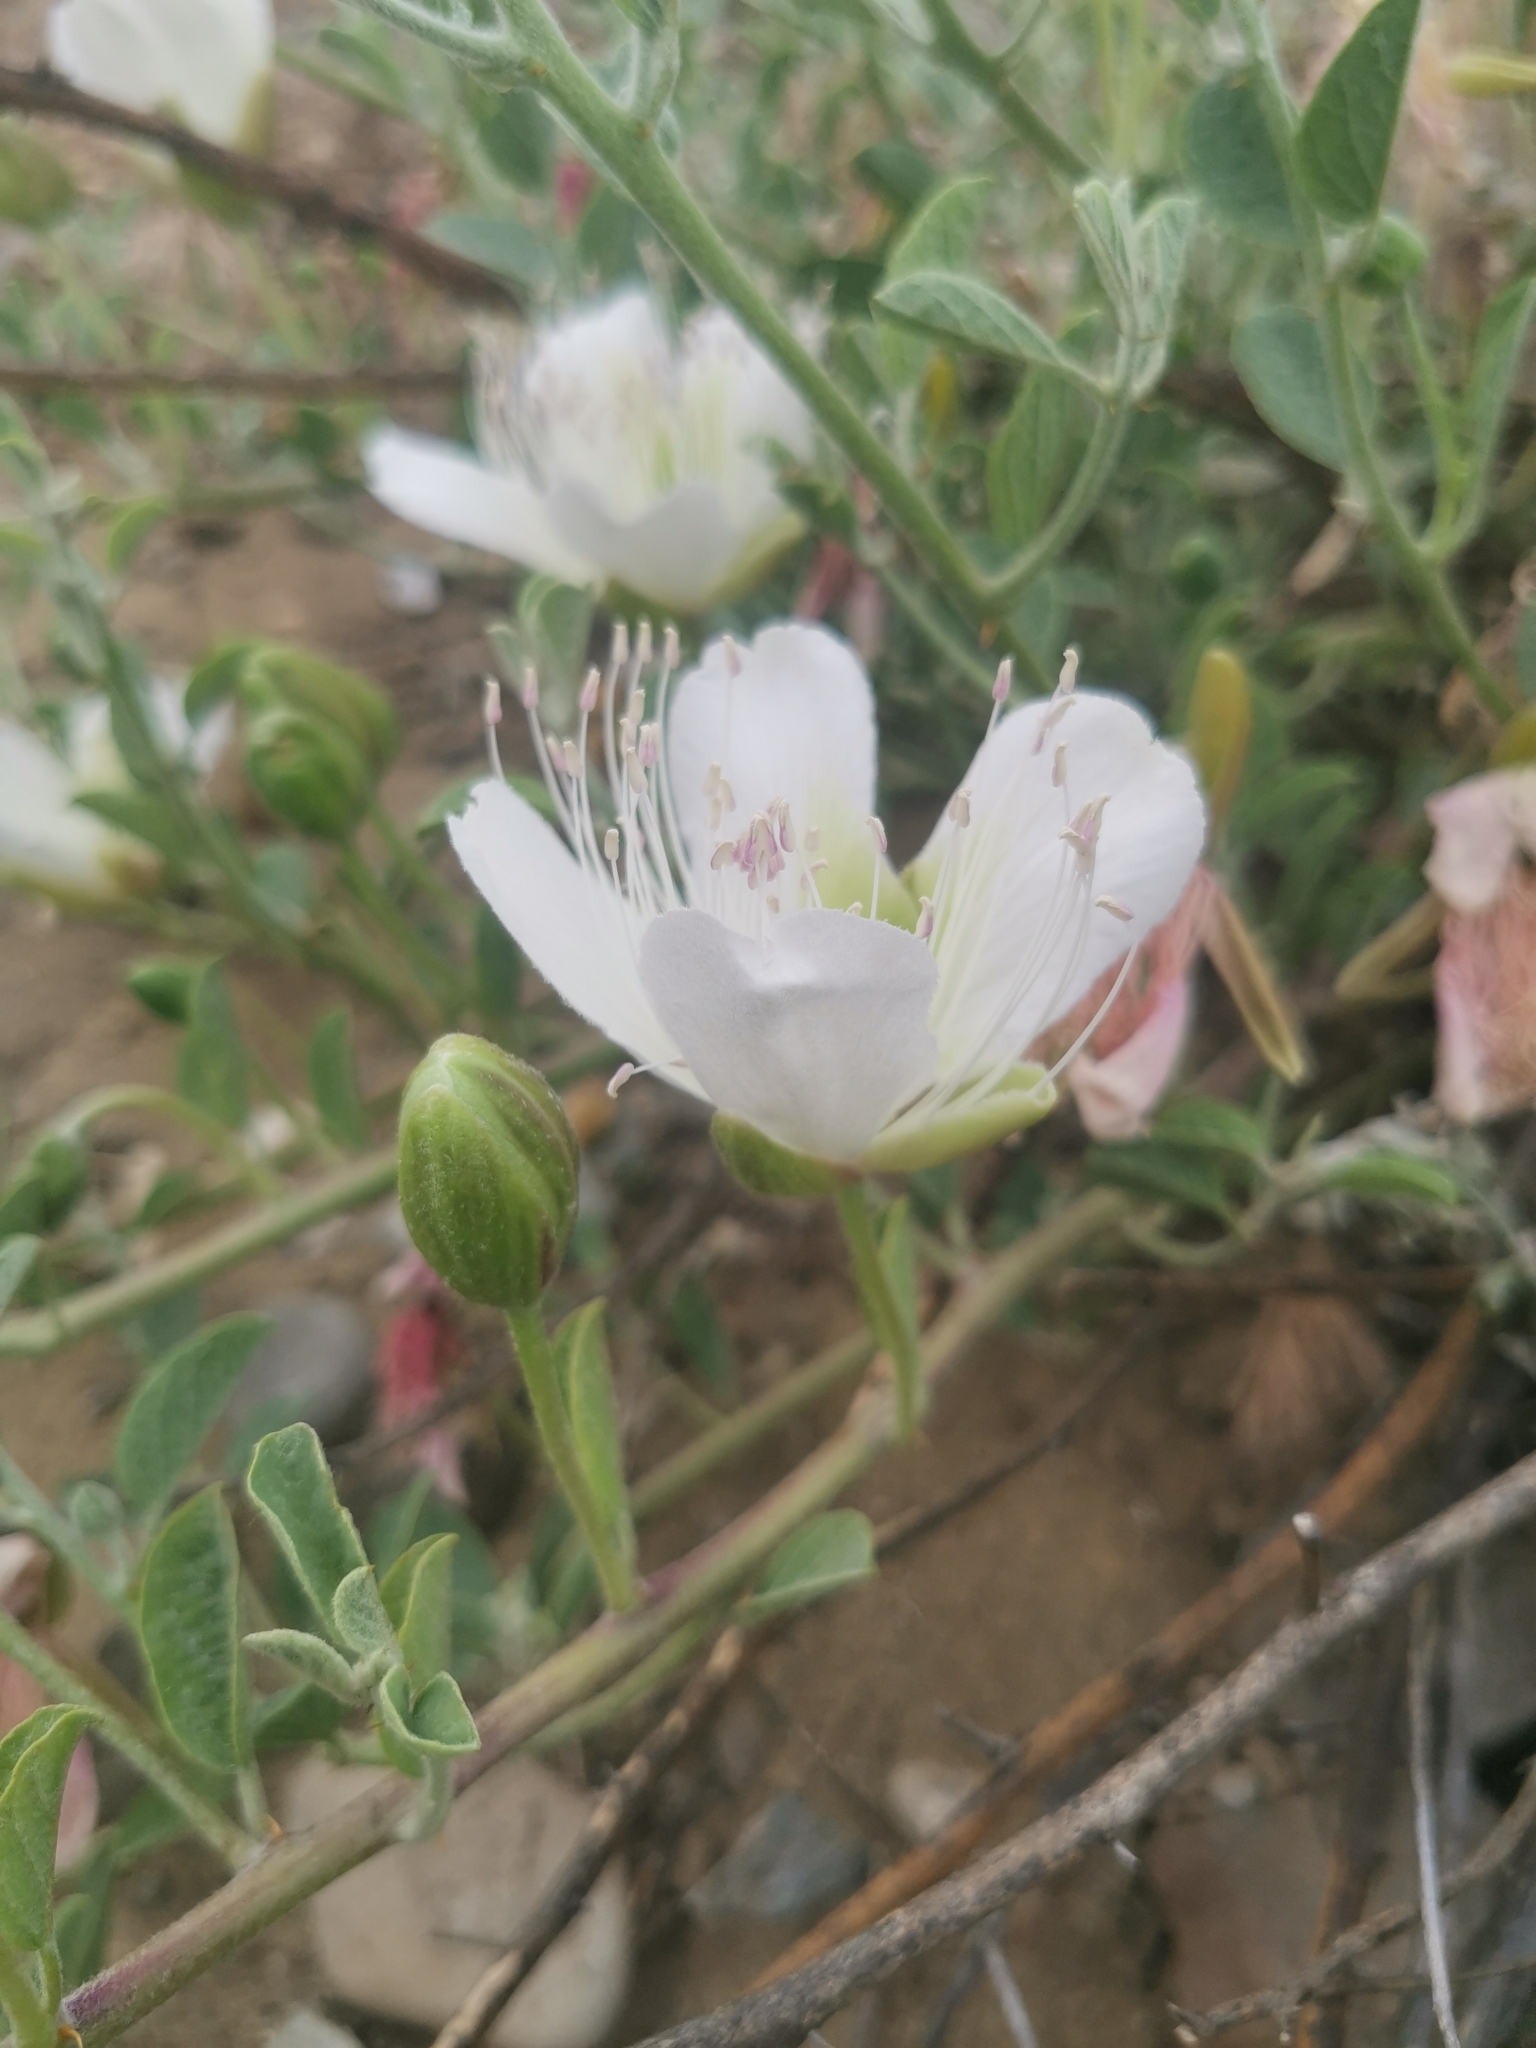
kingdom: Plantae
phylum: Tracheophyta
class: Magnoliopsida
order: Brassicales
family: Capparaceae
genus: Capparis
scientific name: Capparis spinosa
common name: Caper
